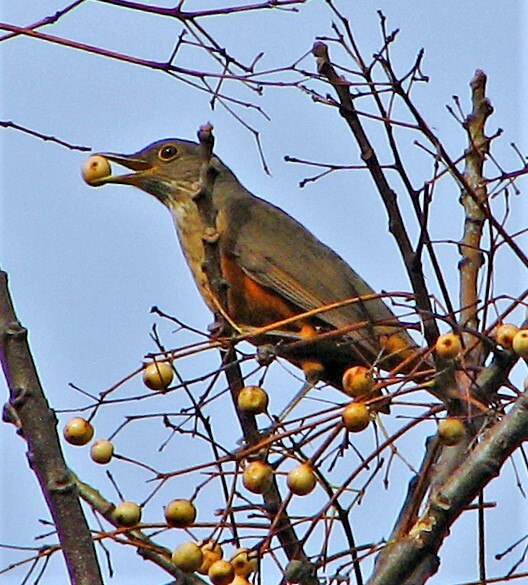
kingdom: Animalia
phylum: Chordata
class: Aves
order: Passeriformes
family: Turdidae
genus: Turdus
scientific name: Turdus rufiventris
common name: Rufous-bellied thrush
